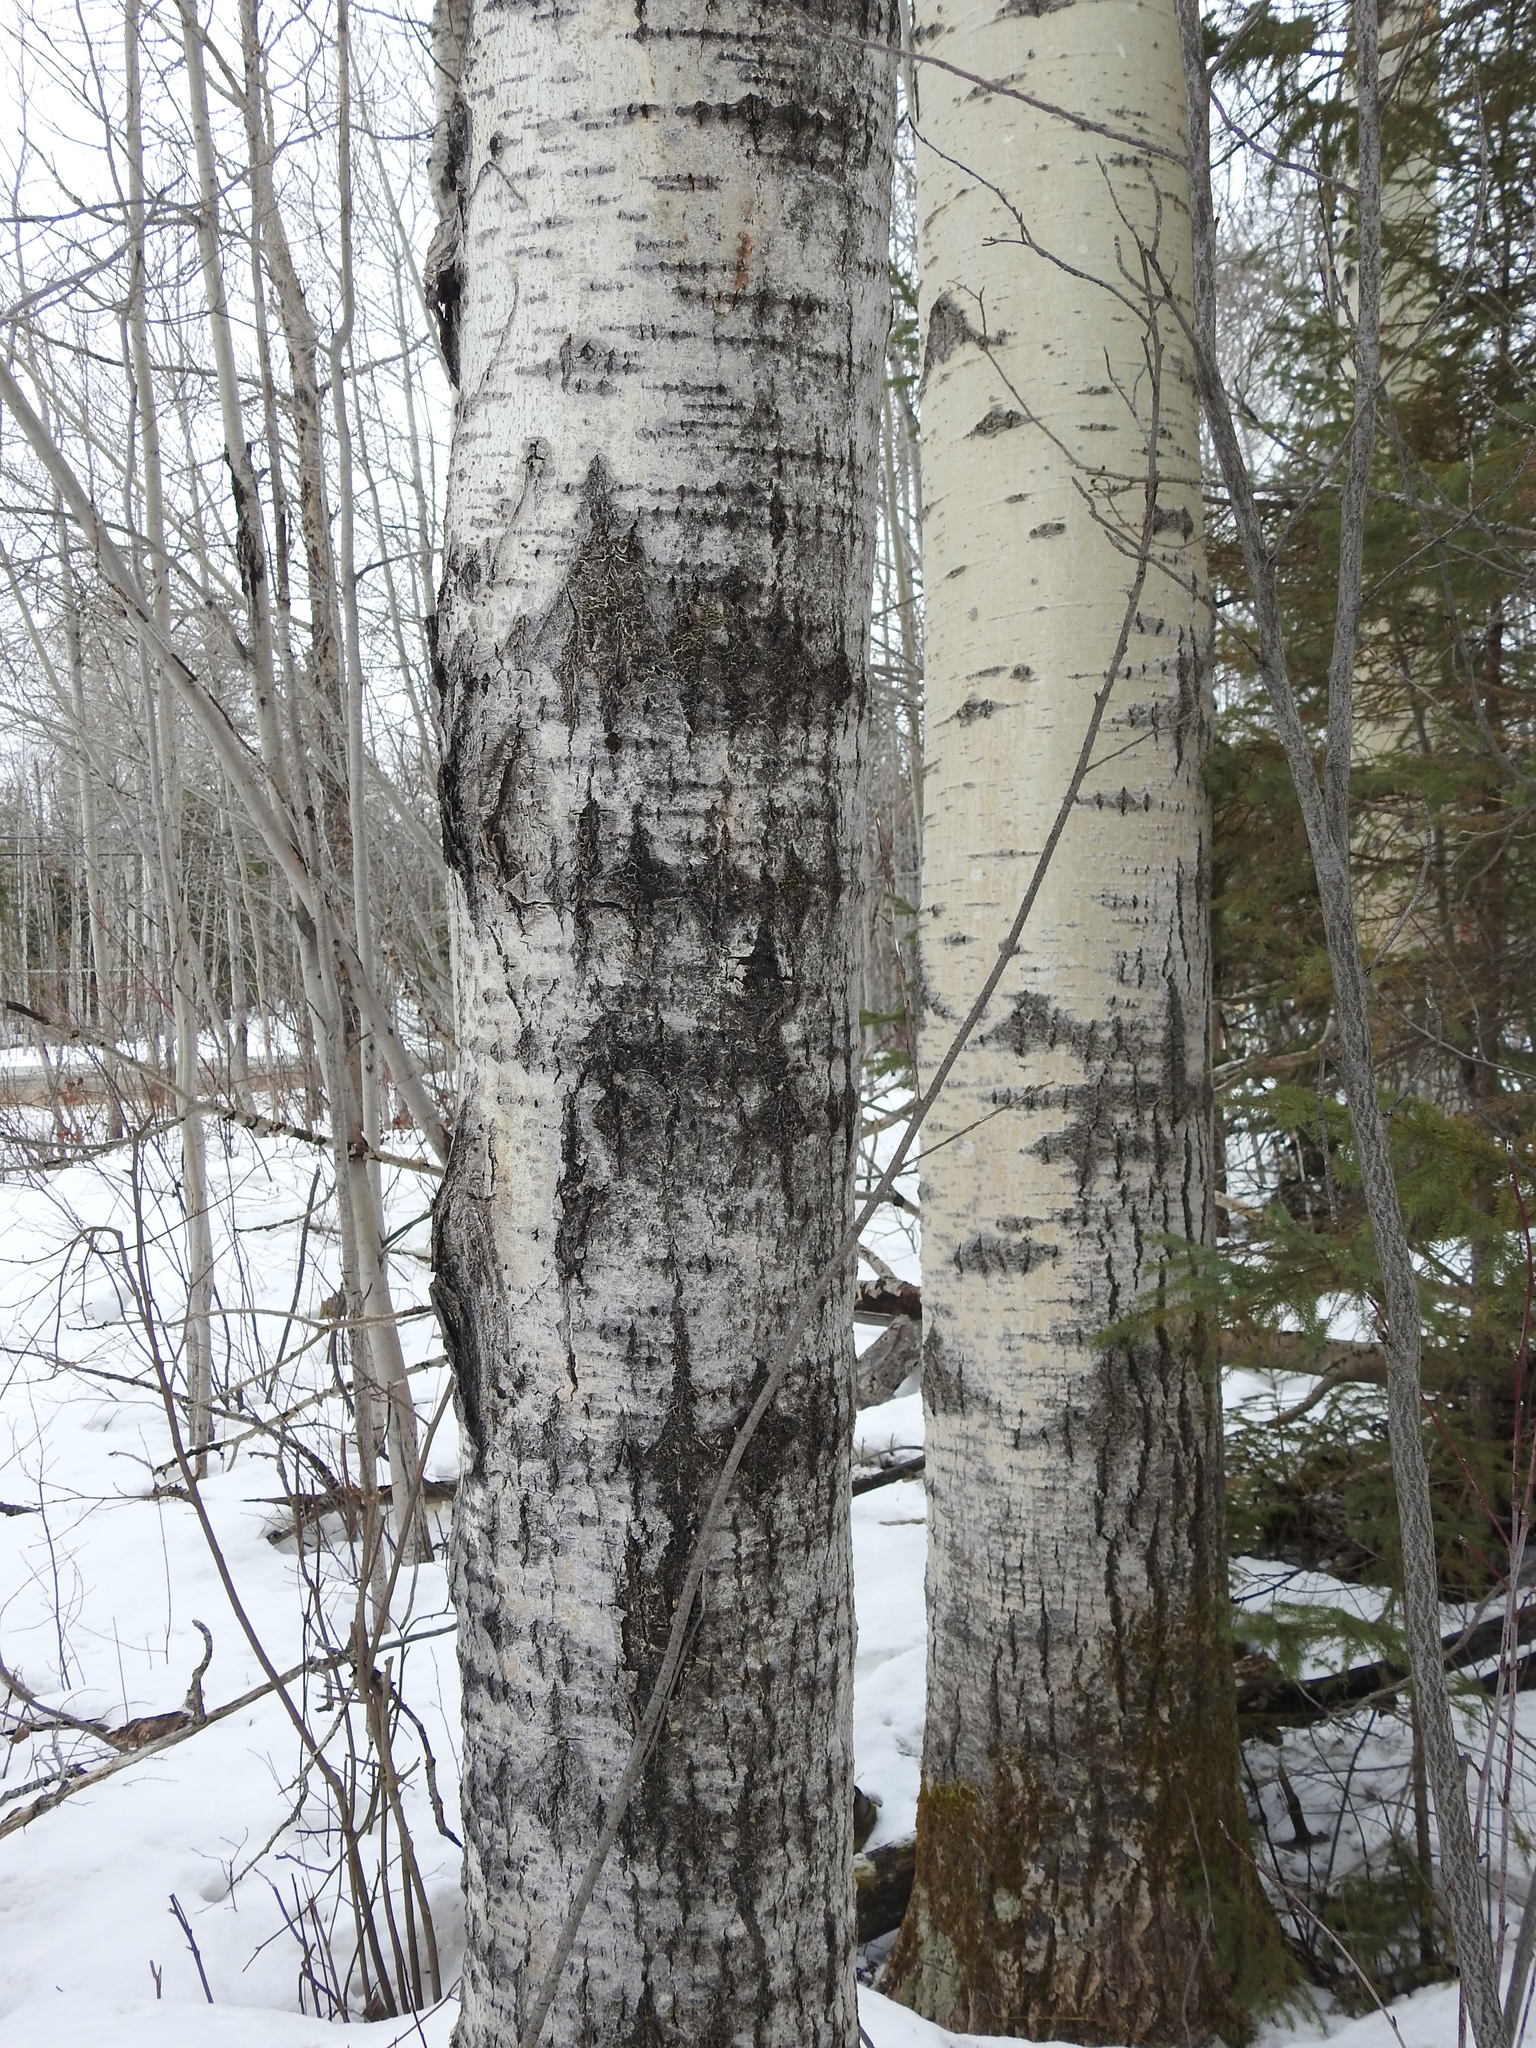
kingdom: Plantae
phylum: Tracheophyta
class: Magnoliopsida
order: Malpighiales
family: Salicaceae
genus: Populus
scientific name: Populus tremuloides
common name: Quaking aspen
